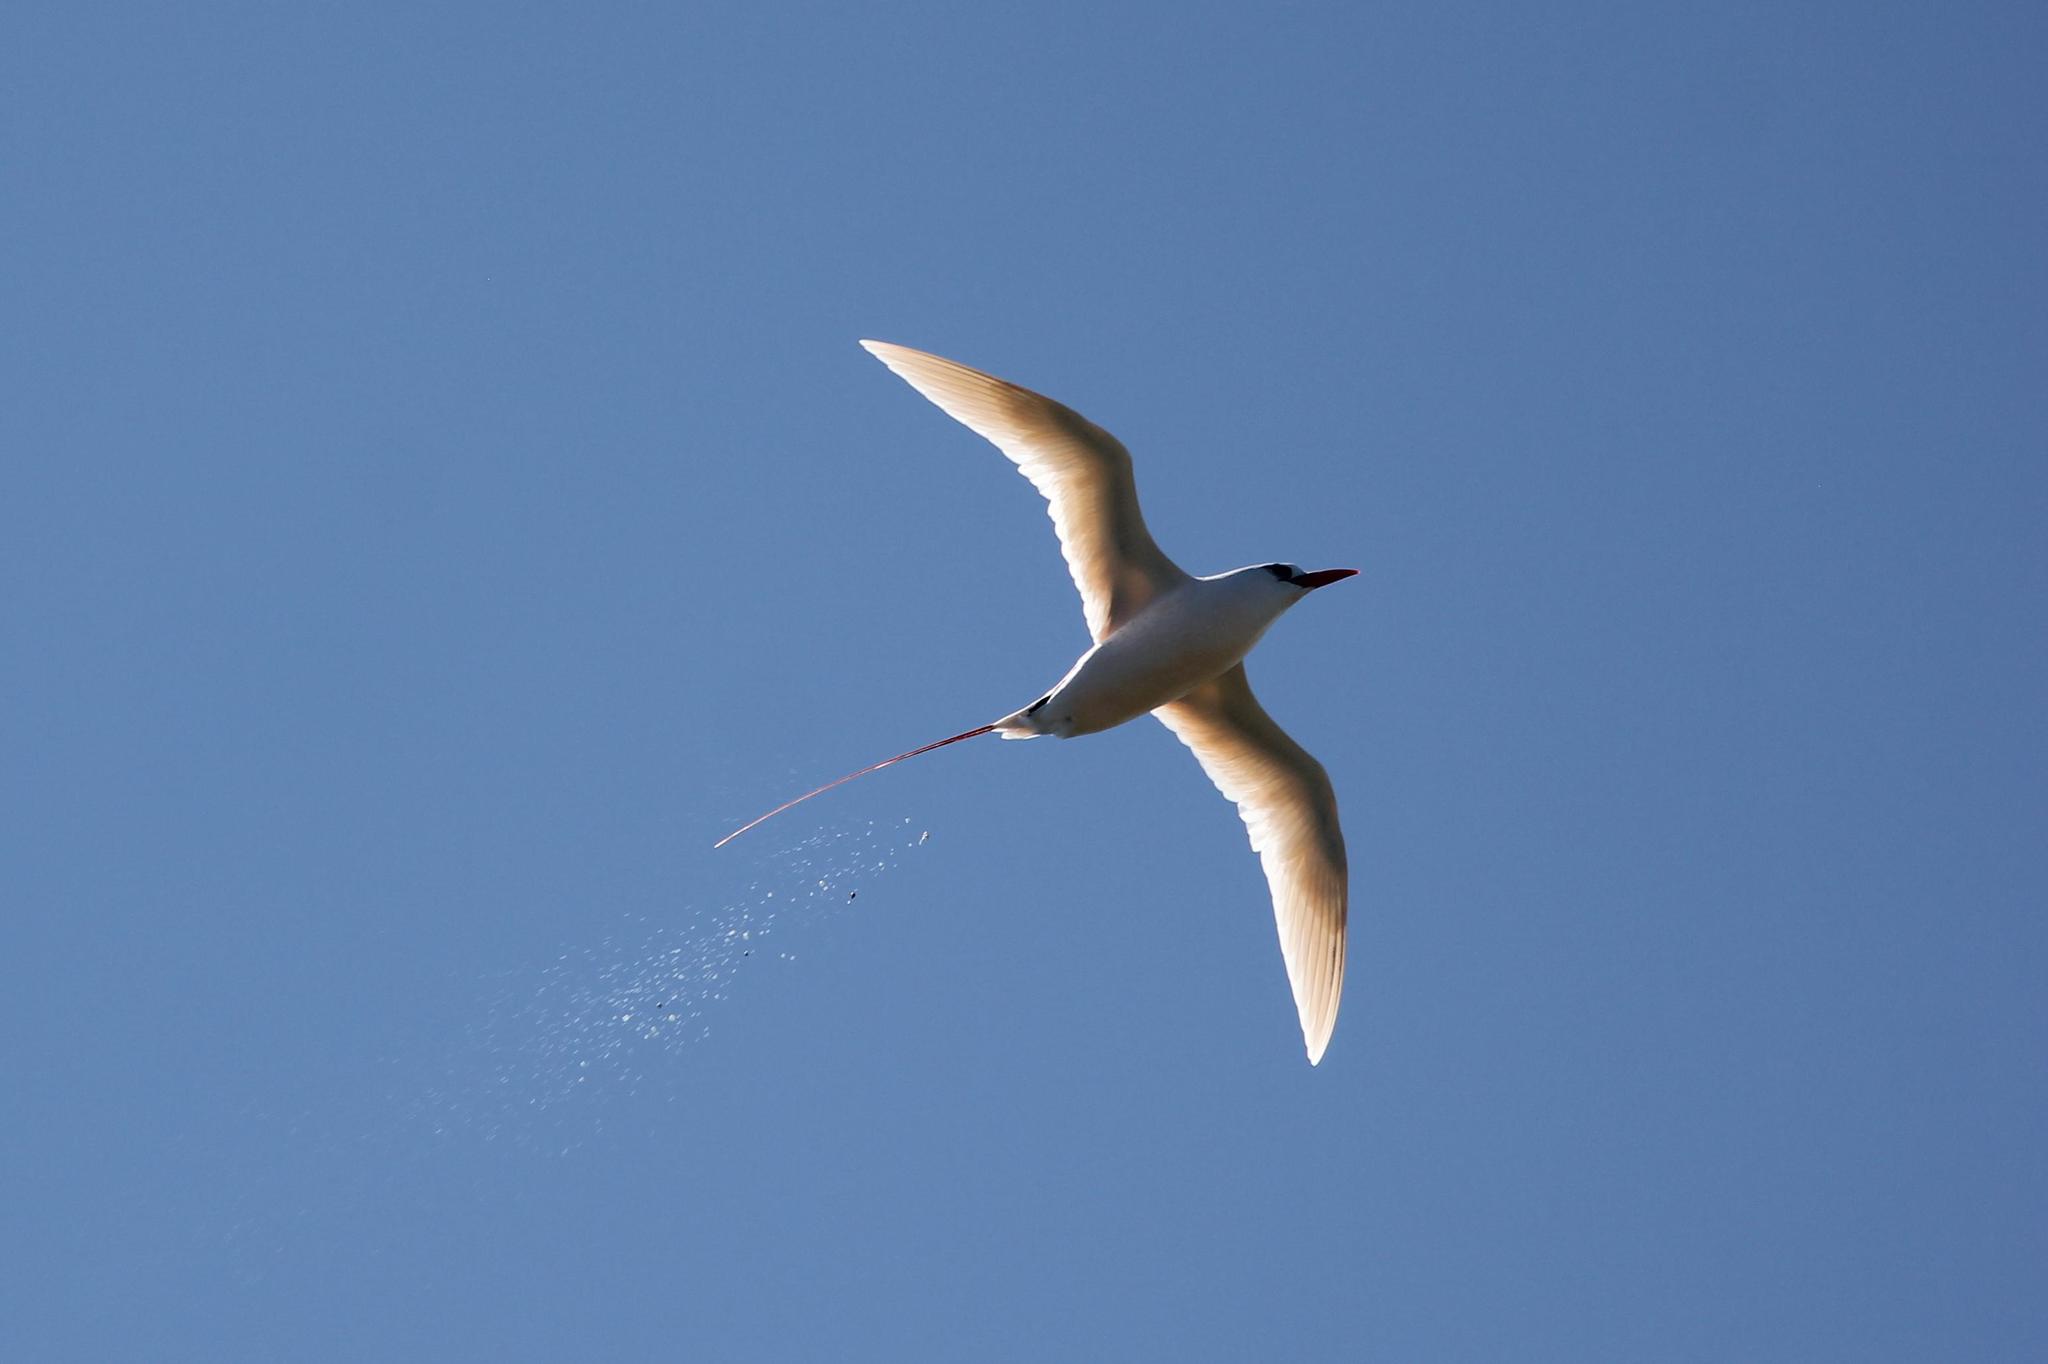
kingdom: Animalia
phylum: Chordata
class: Aves
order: Phaethontiformes
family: Phaethontidae
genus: Phaethon
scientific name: Phaethon rubricauda
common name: Red-tailed tropicbird
